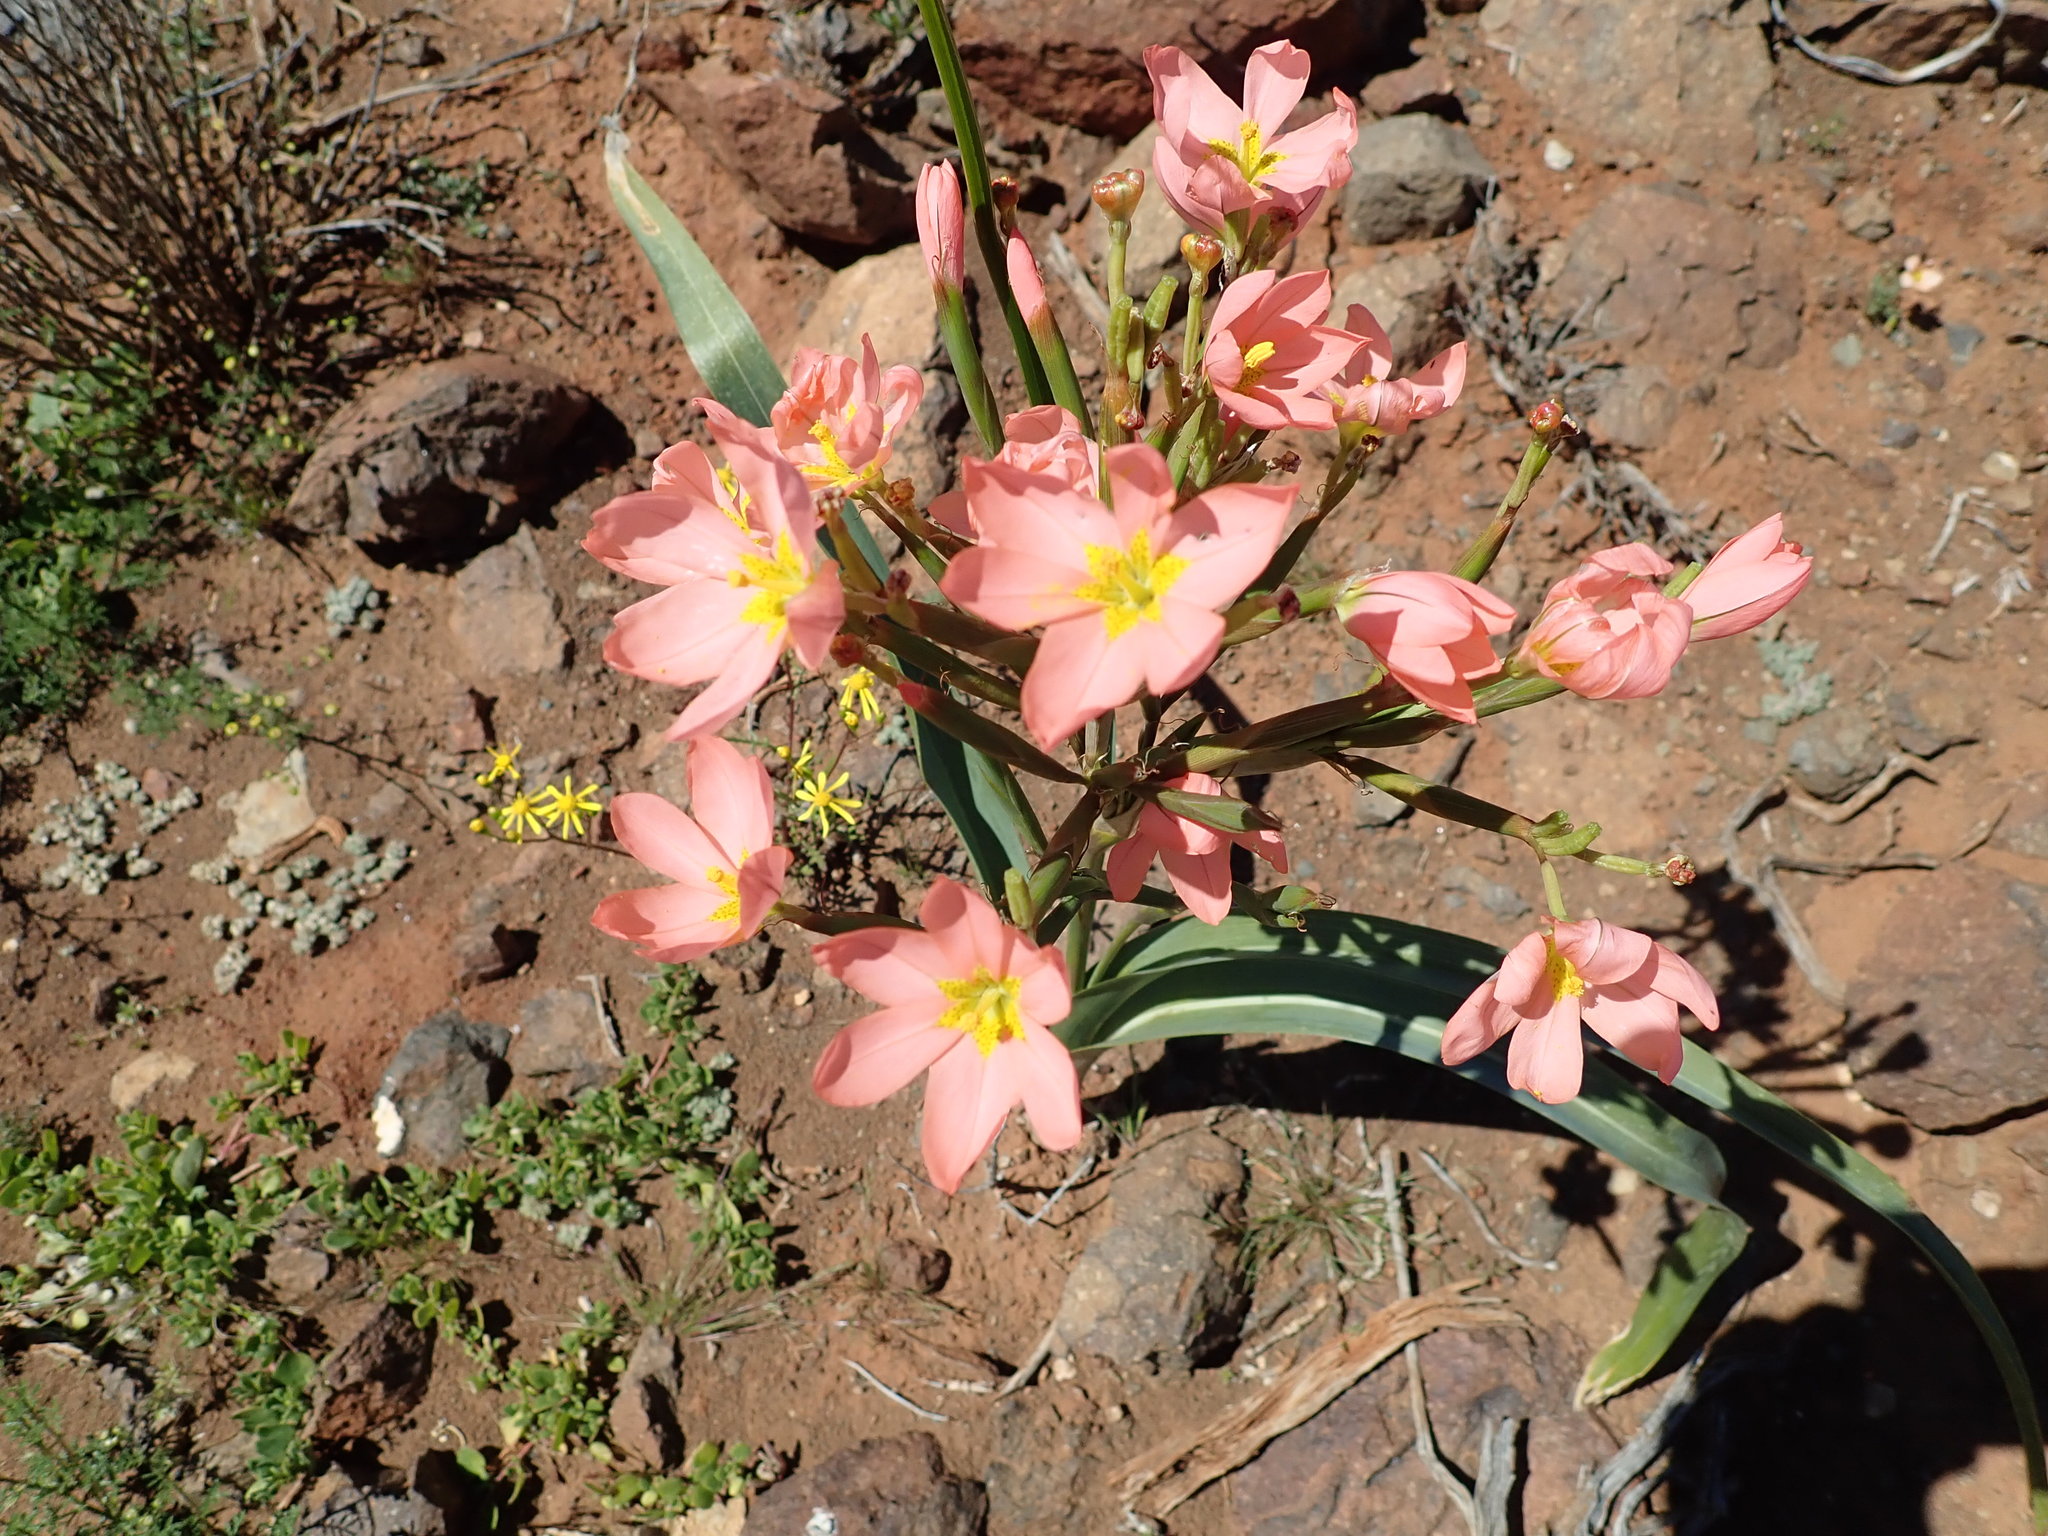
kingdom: Plantae
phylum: Tracheophyta
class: Liliopsida
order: Asparagales
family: Iridaceae
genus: Moraea
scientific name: Moraea miniata
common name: Two-leaf cape-tulip
